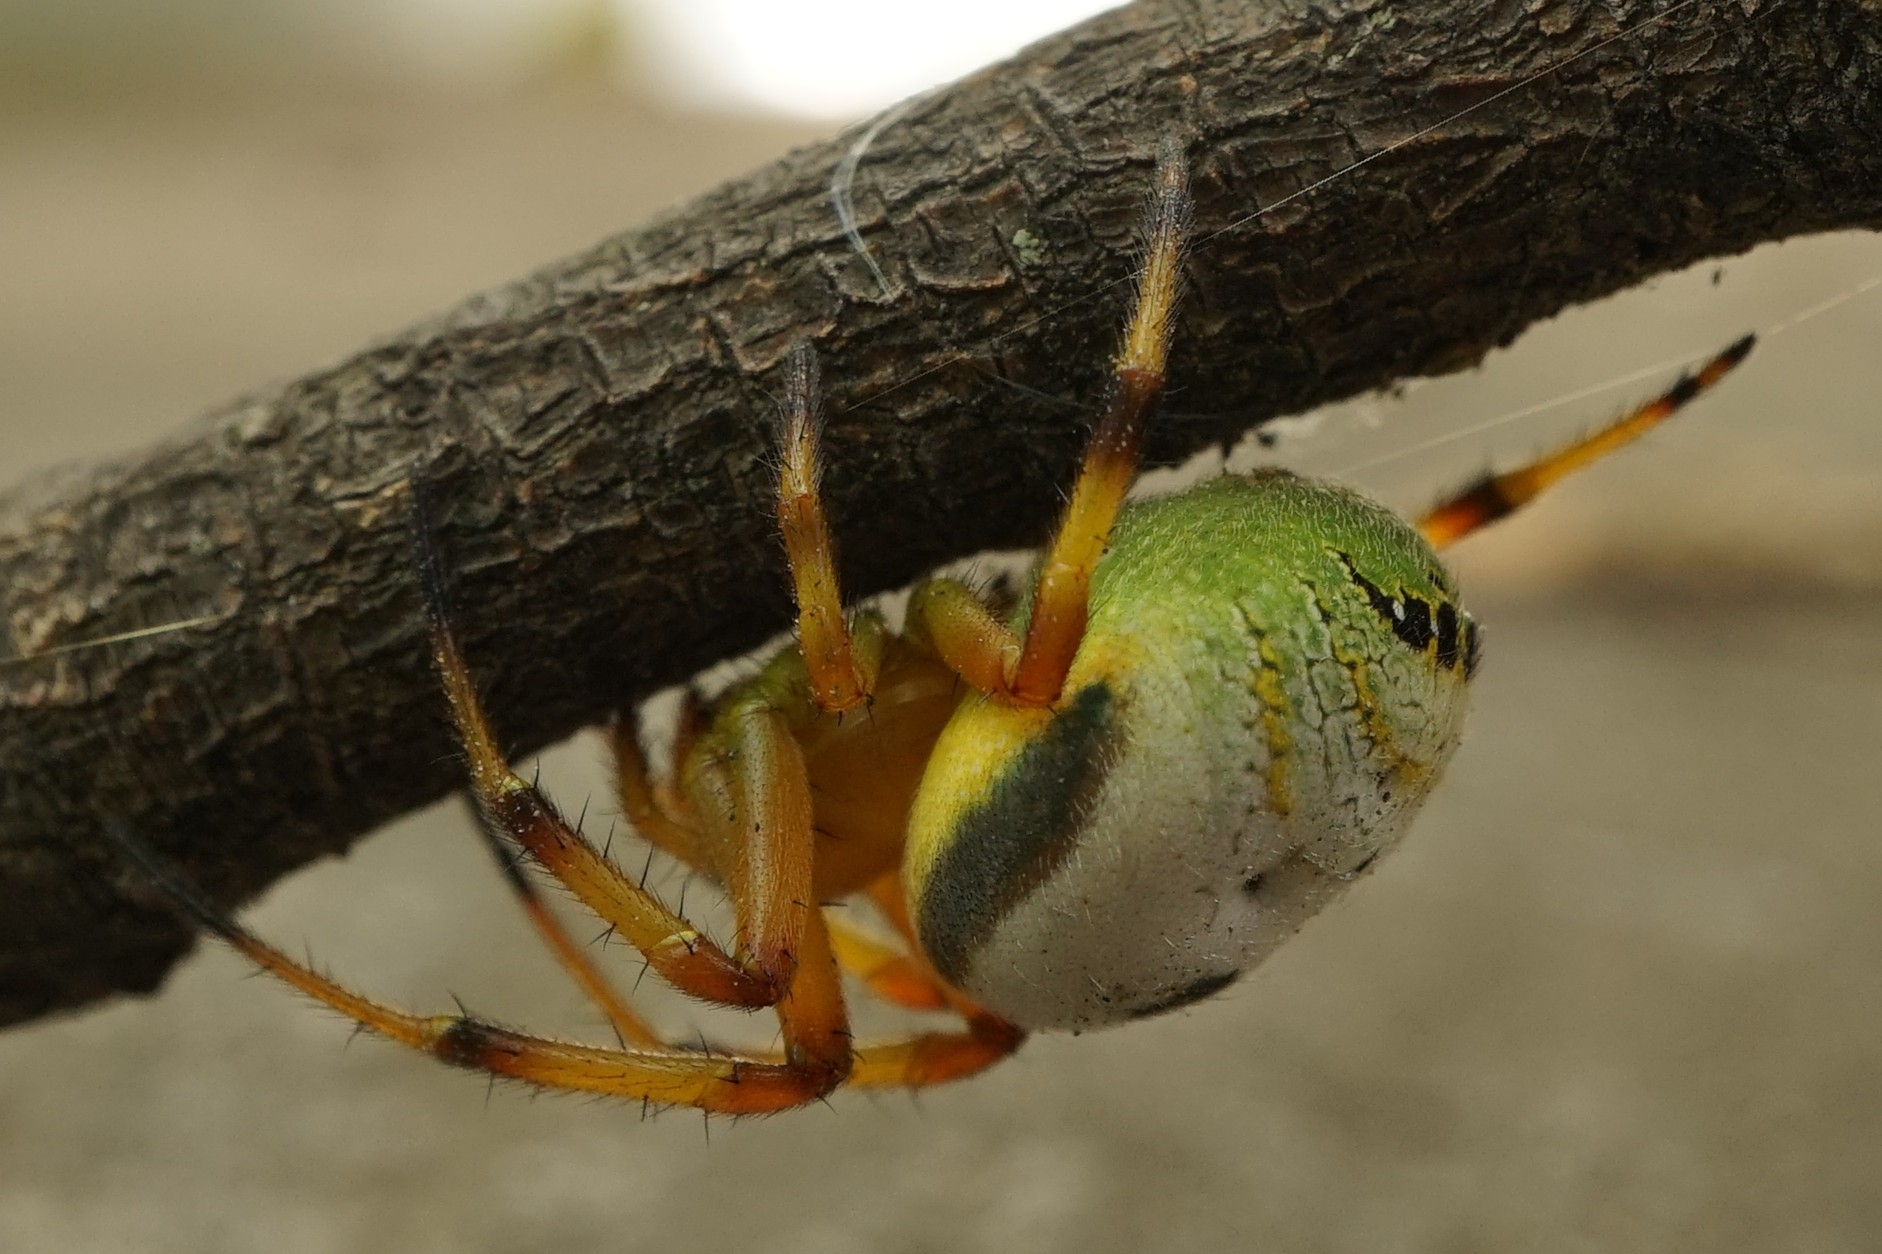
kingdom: Animalia
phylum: Arthropoda
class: Arachnida
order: Araneae
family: Araneidae
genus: Bijoaraneus
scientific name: Bijoaraneus komachi
